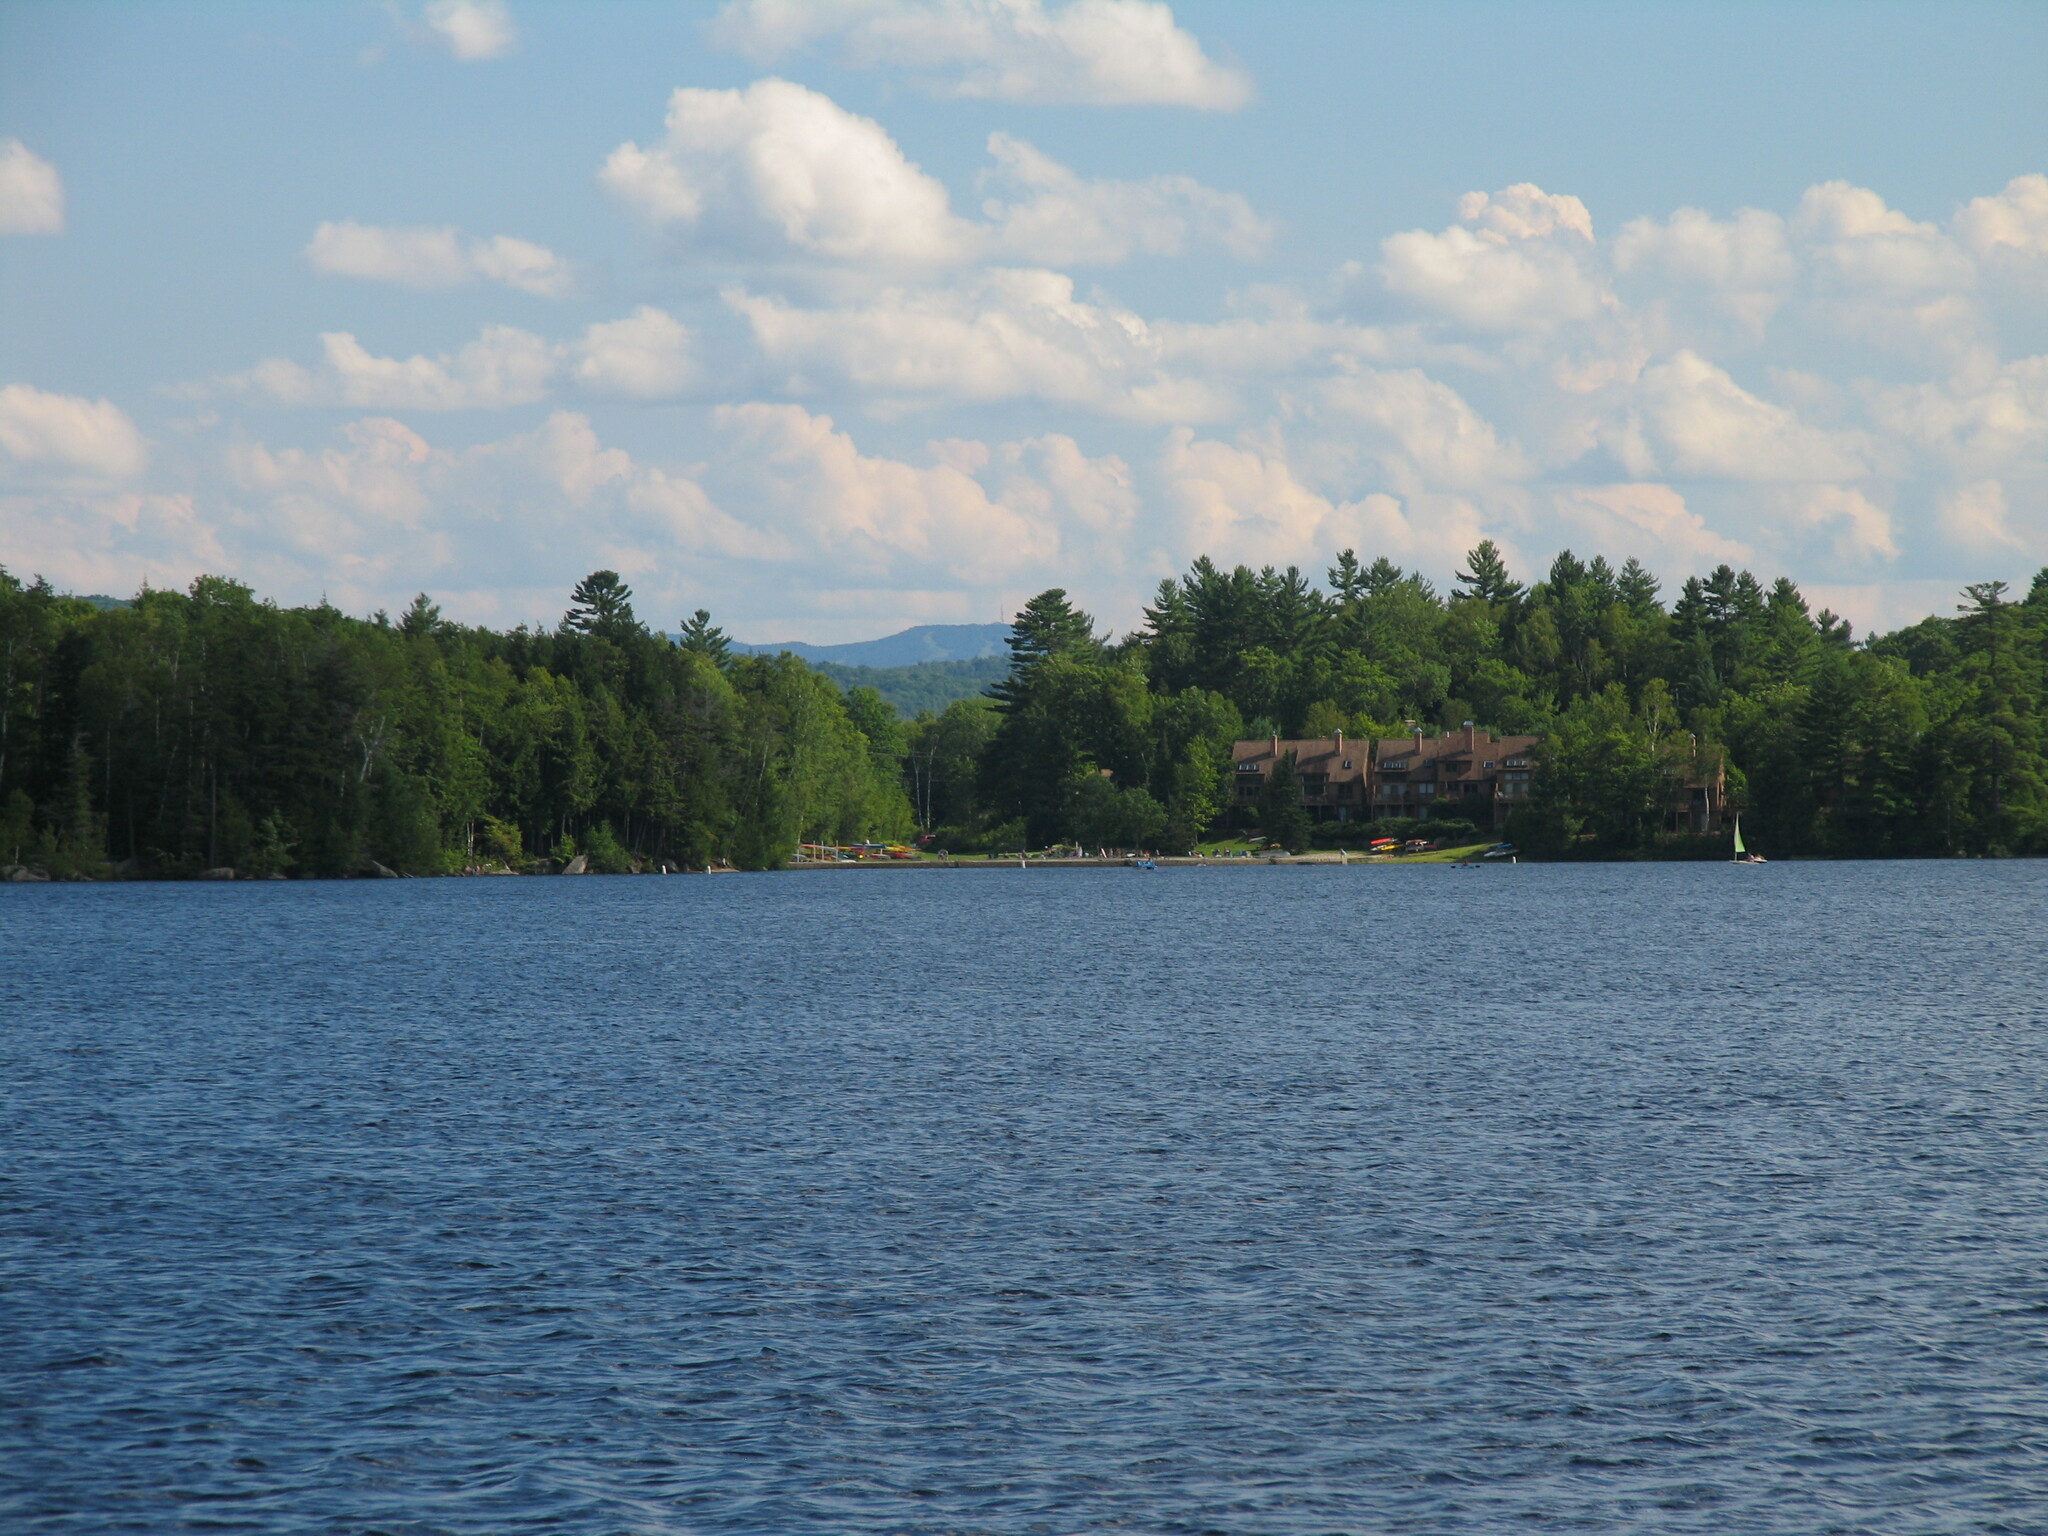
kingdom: Plantae
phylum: Tracheophyta
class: Pinopsida
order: Pinales
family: Pinaceae
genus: Pinus
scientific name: Pinus strobus
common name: Weymouth pine
